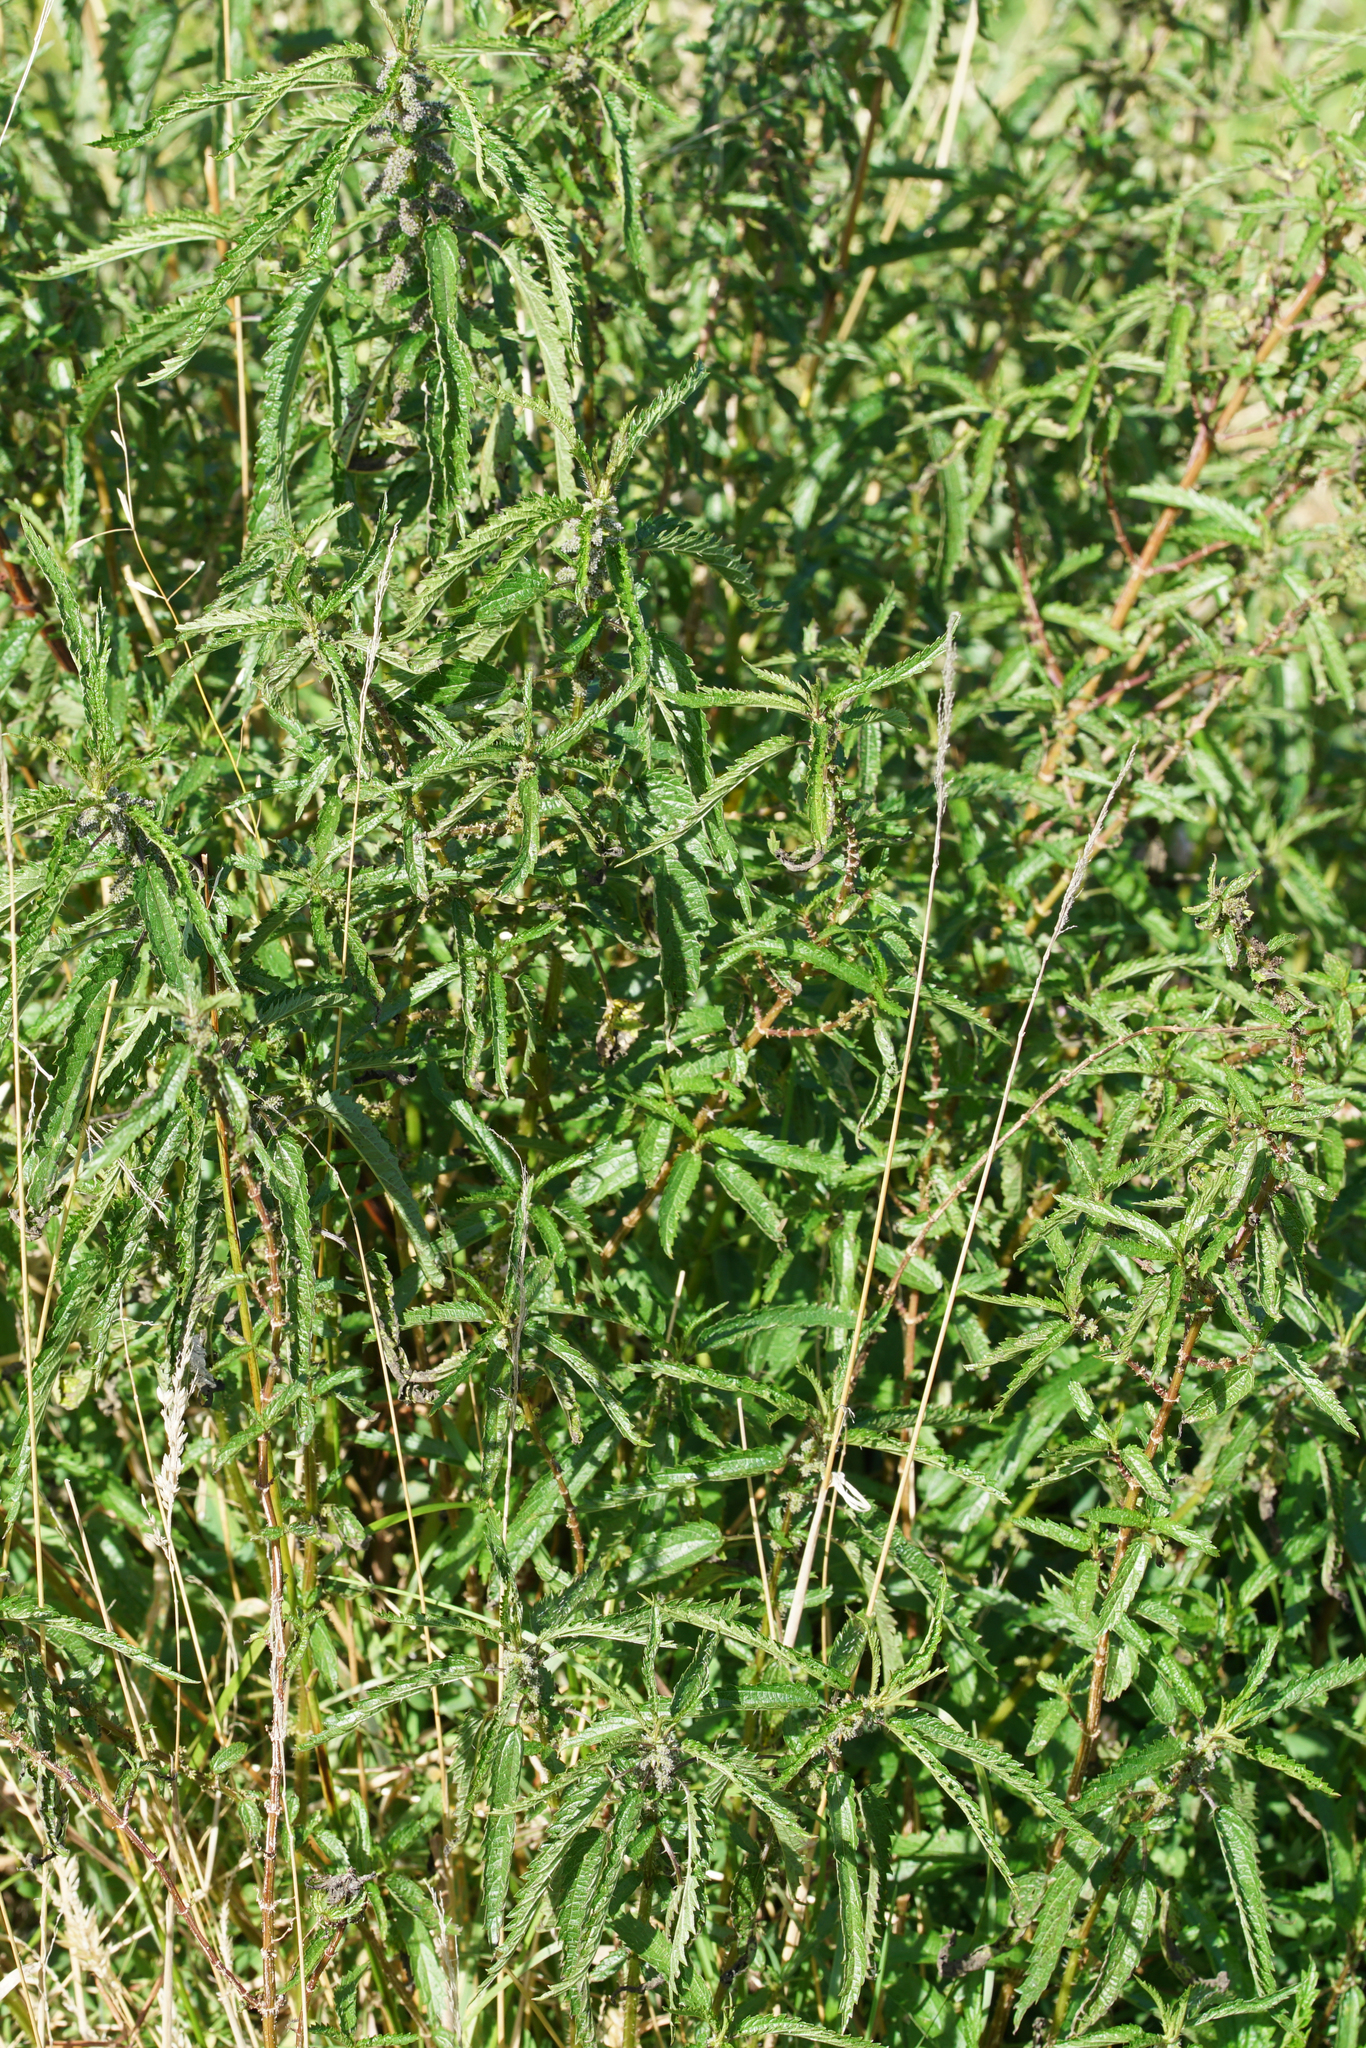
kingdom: Plantae
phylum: Tracheophyta
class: Magnoliopsida
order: Rosales
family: Urticaceae
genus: Urtica
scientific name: Urtica incisa
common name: Scrub nettle
